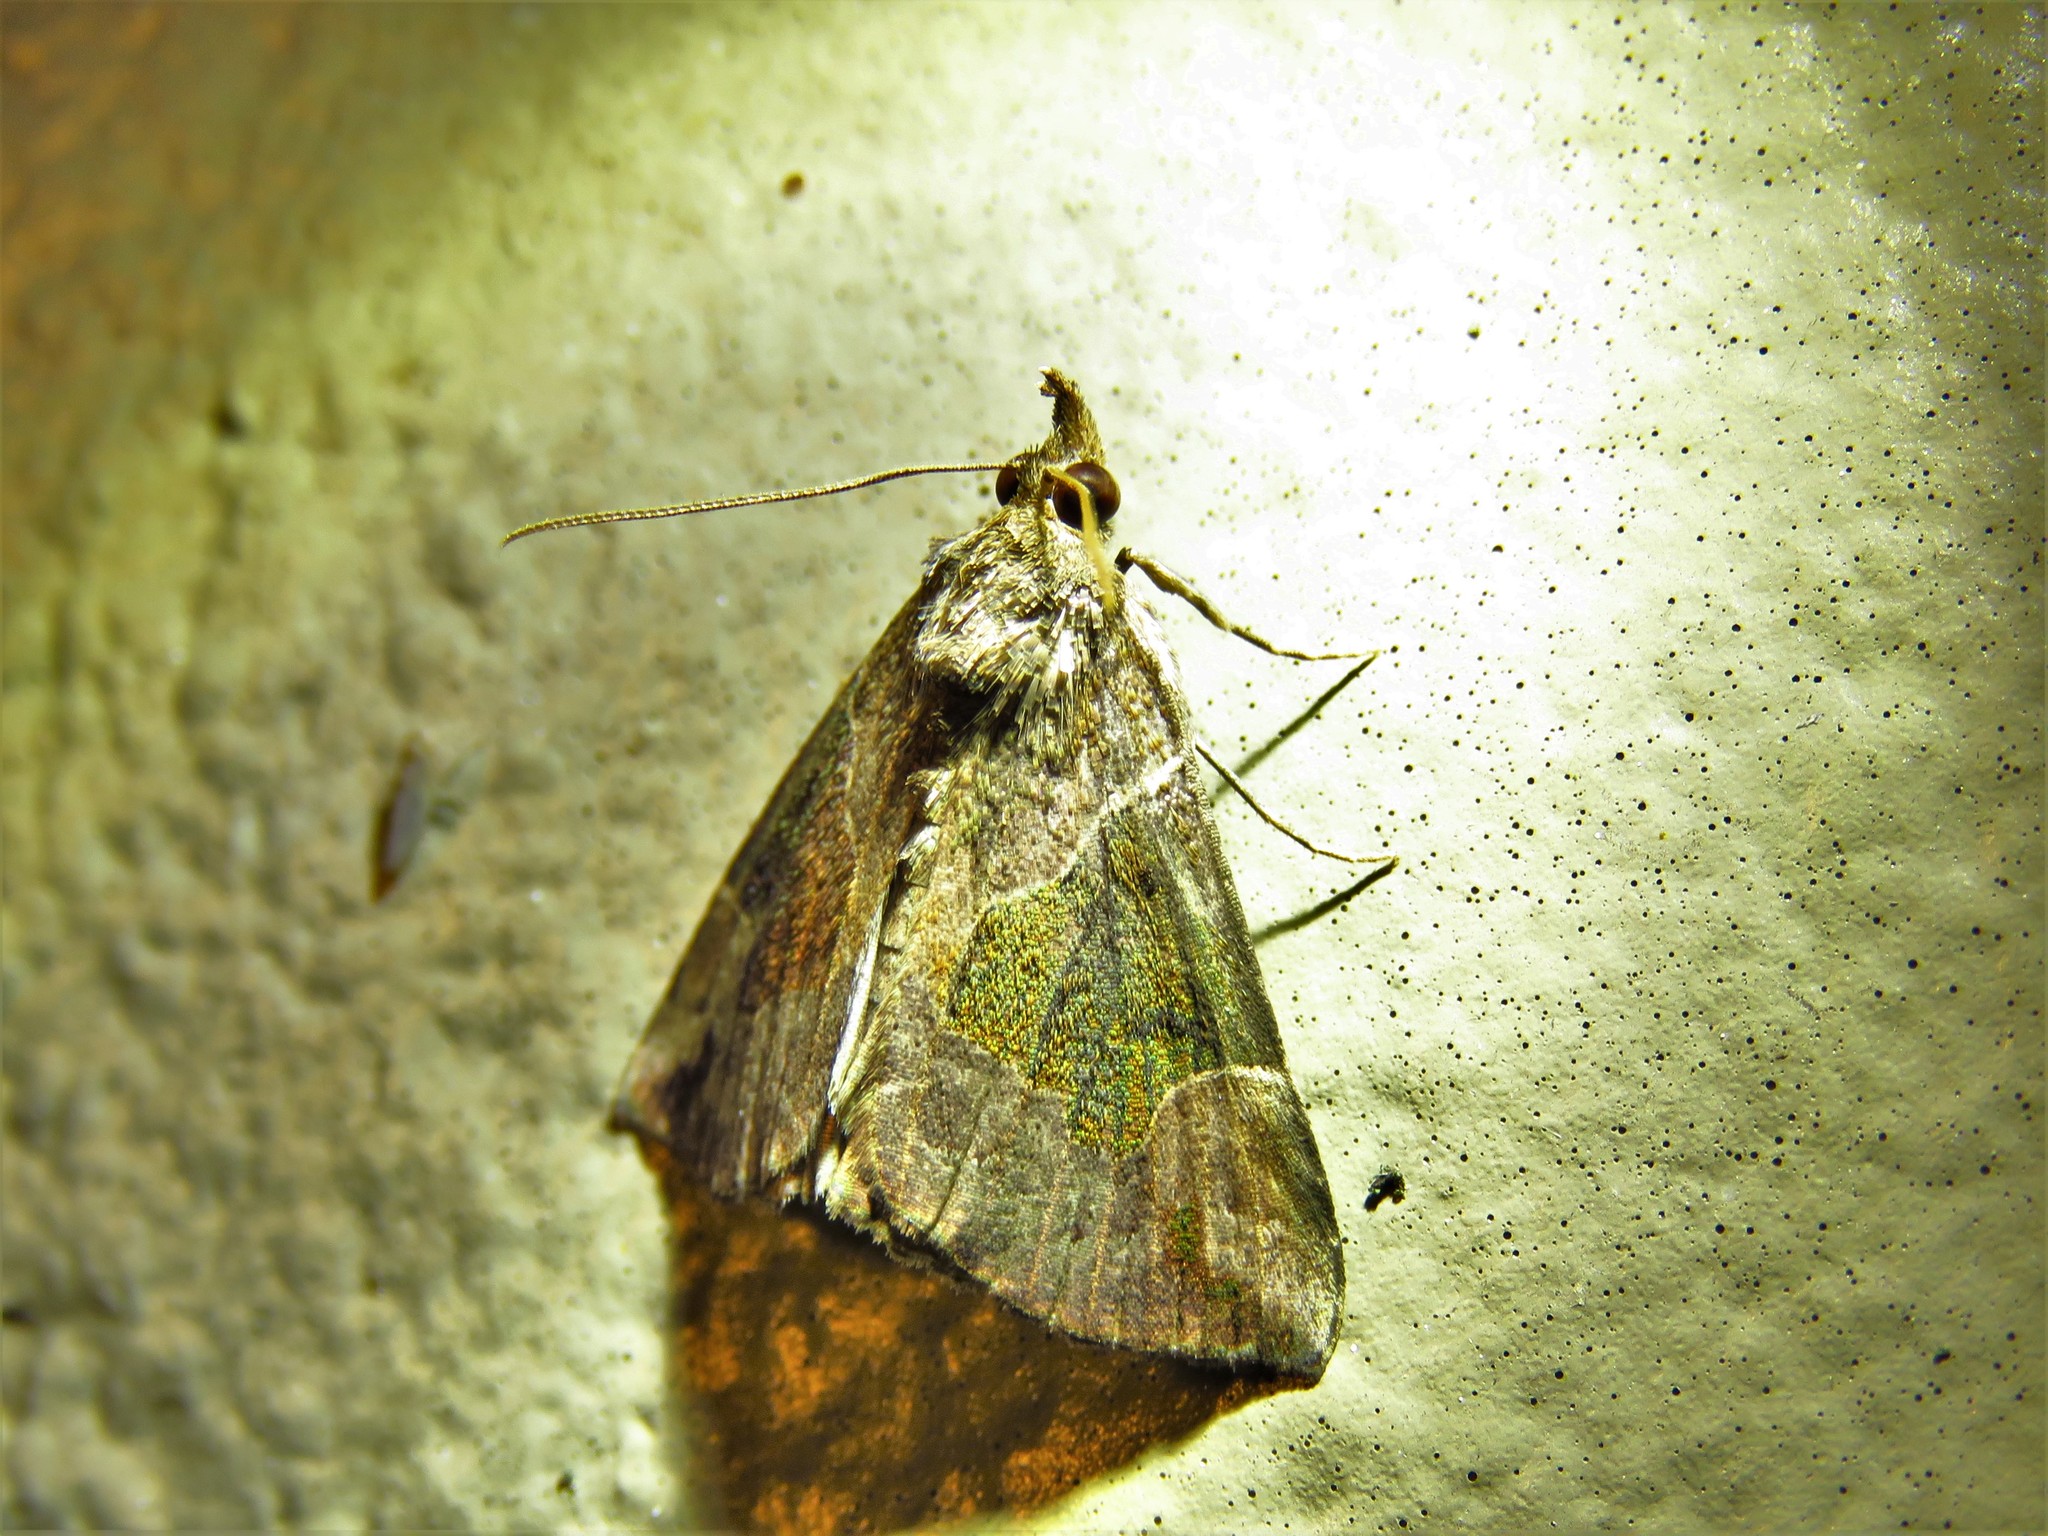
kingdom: Animalia
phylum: Arthropoda
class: Insecta
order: Lepidoptera
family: Erebidae
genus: Hypena
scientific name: Hypena manalis
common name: Flowing-line bomolocha moth
